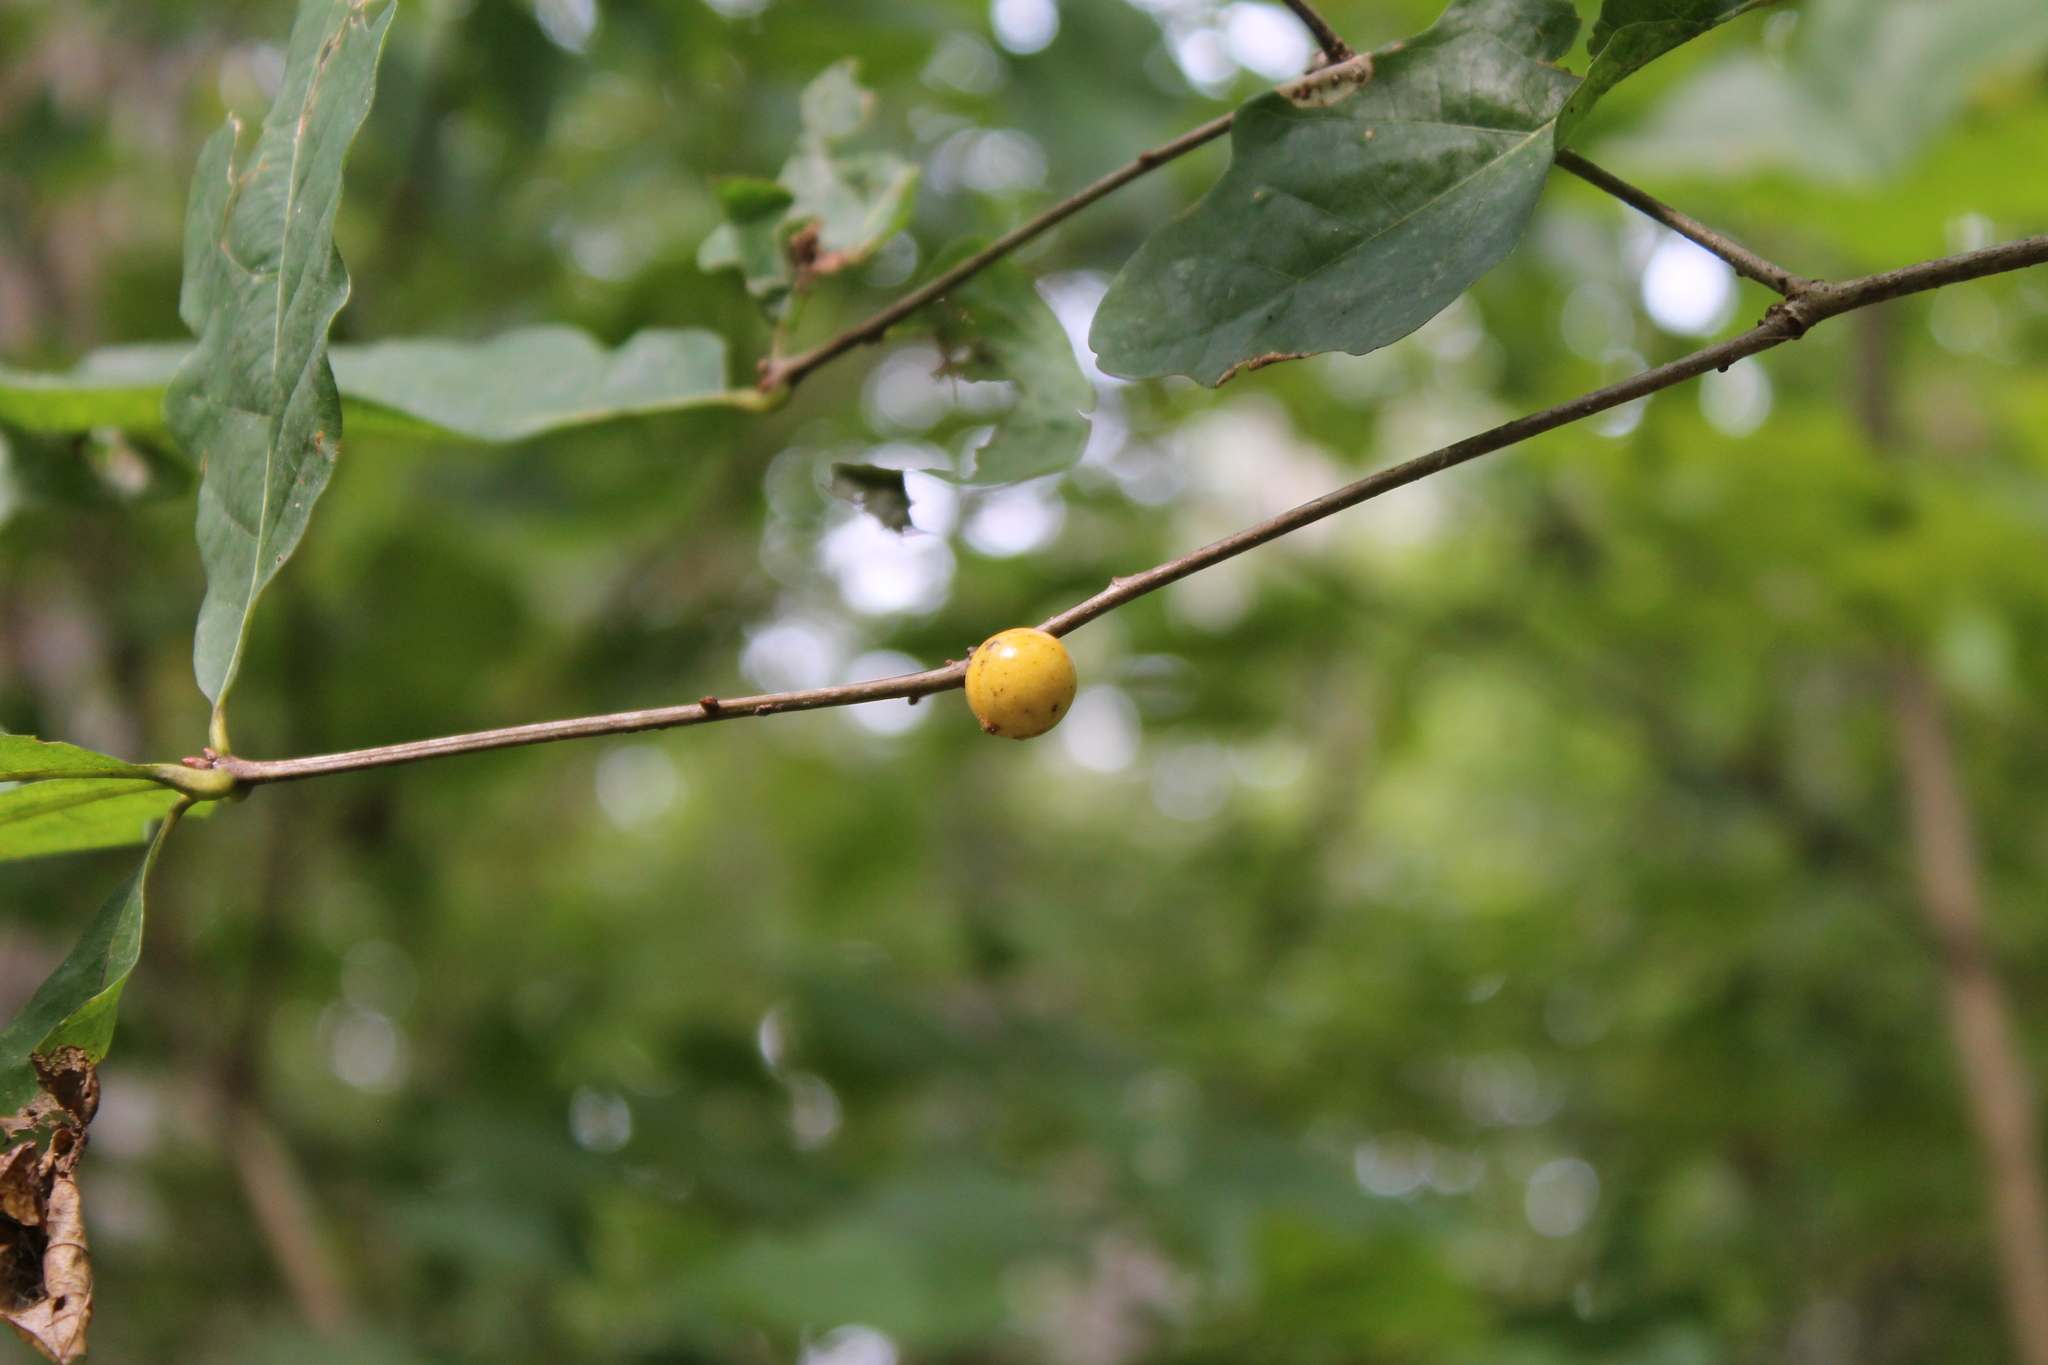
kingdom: Animalia
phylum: Arthropoda
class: Insecta
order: Hymenoptera
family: Cynipidae
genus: Disholcaspis
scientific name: Disholcaspis quercusglobulus
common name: Round bullet gall wasp
